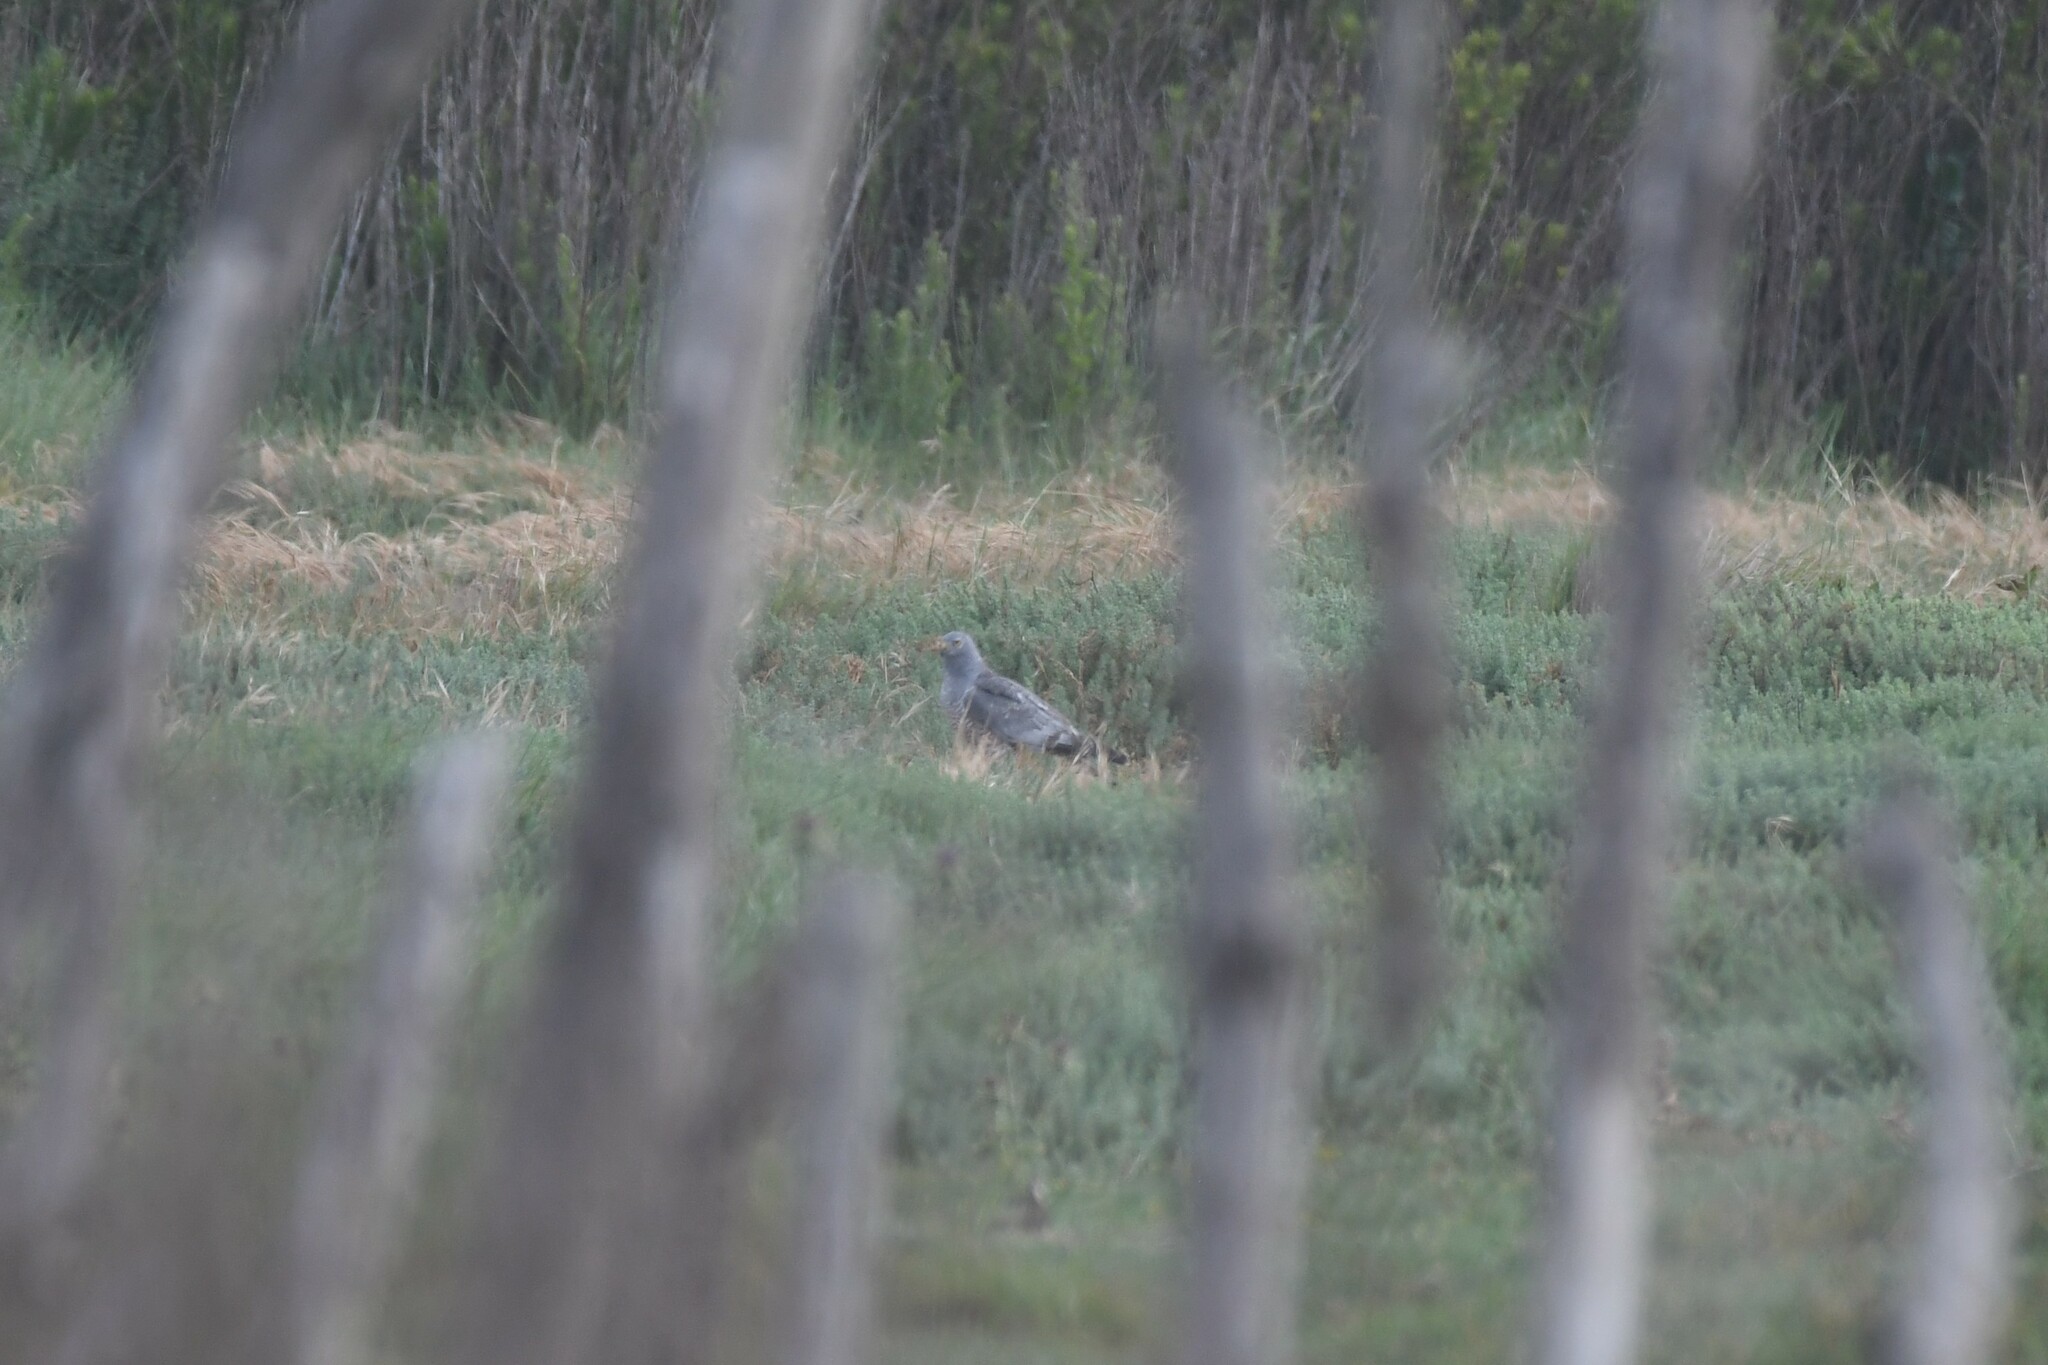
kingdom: Animalia
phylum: Chordata
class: Aves
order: Accipitriformes
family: Accipitridae
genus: Circus
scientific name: Circus cinereus
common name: Cinereous harrier
